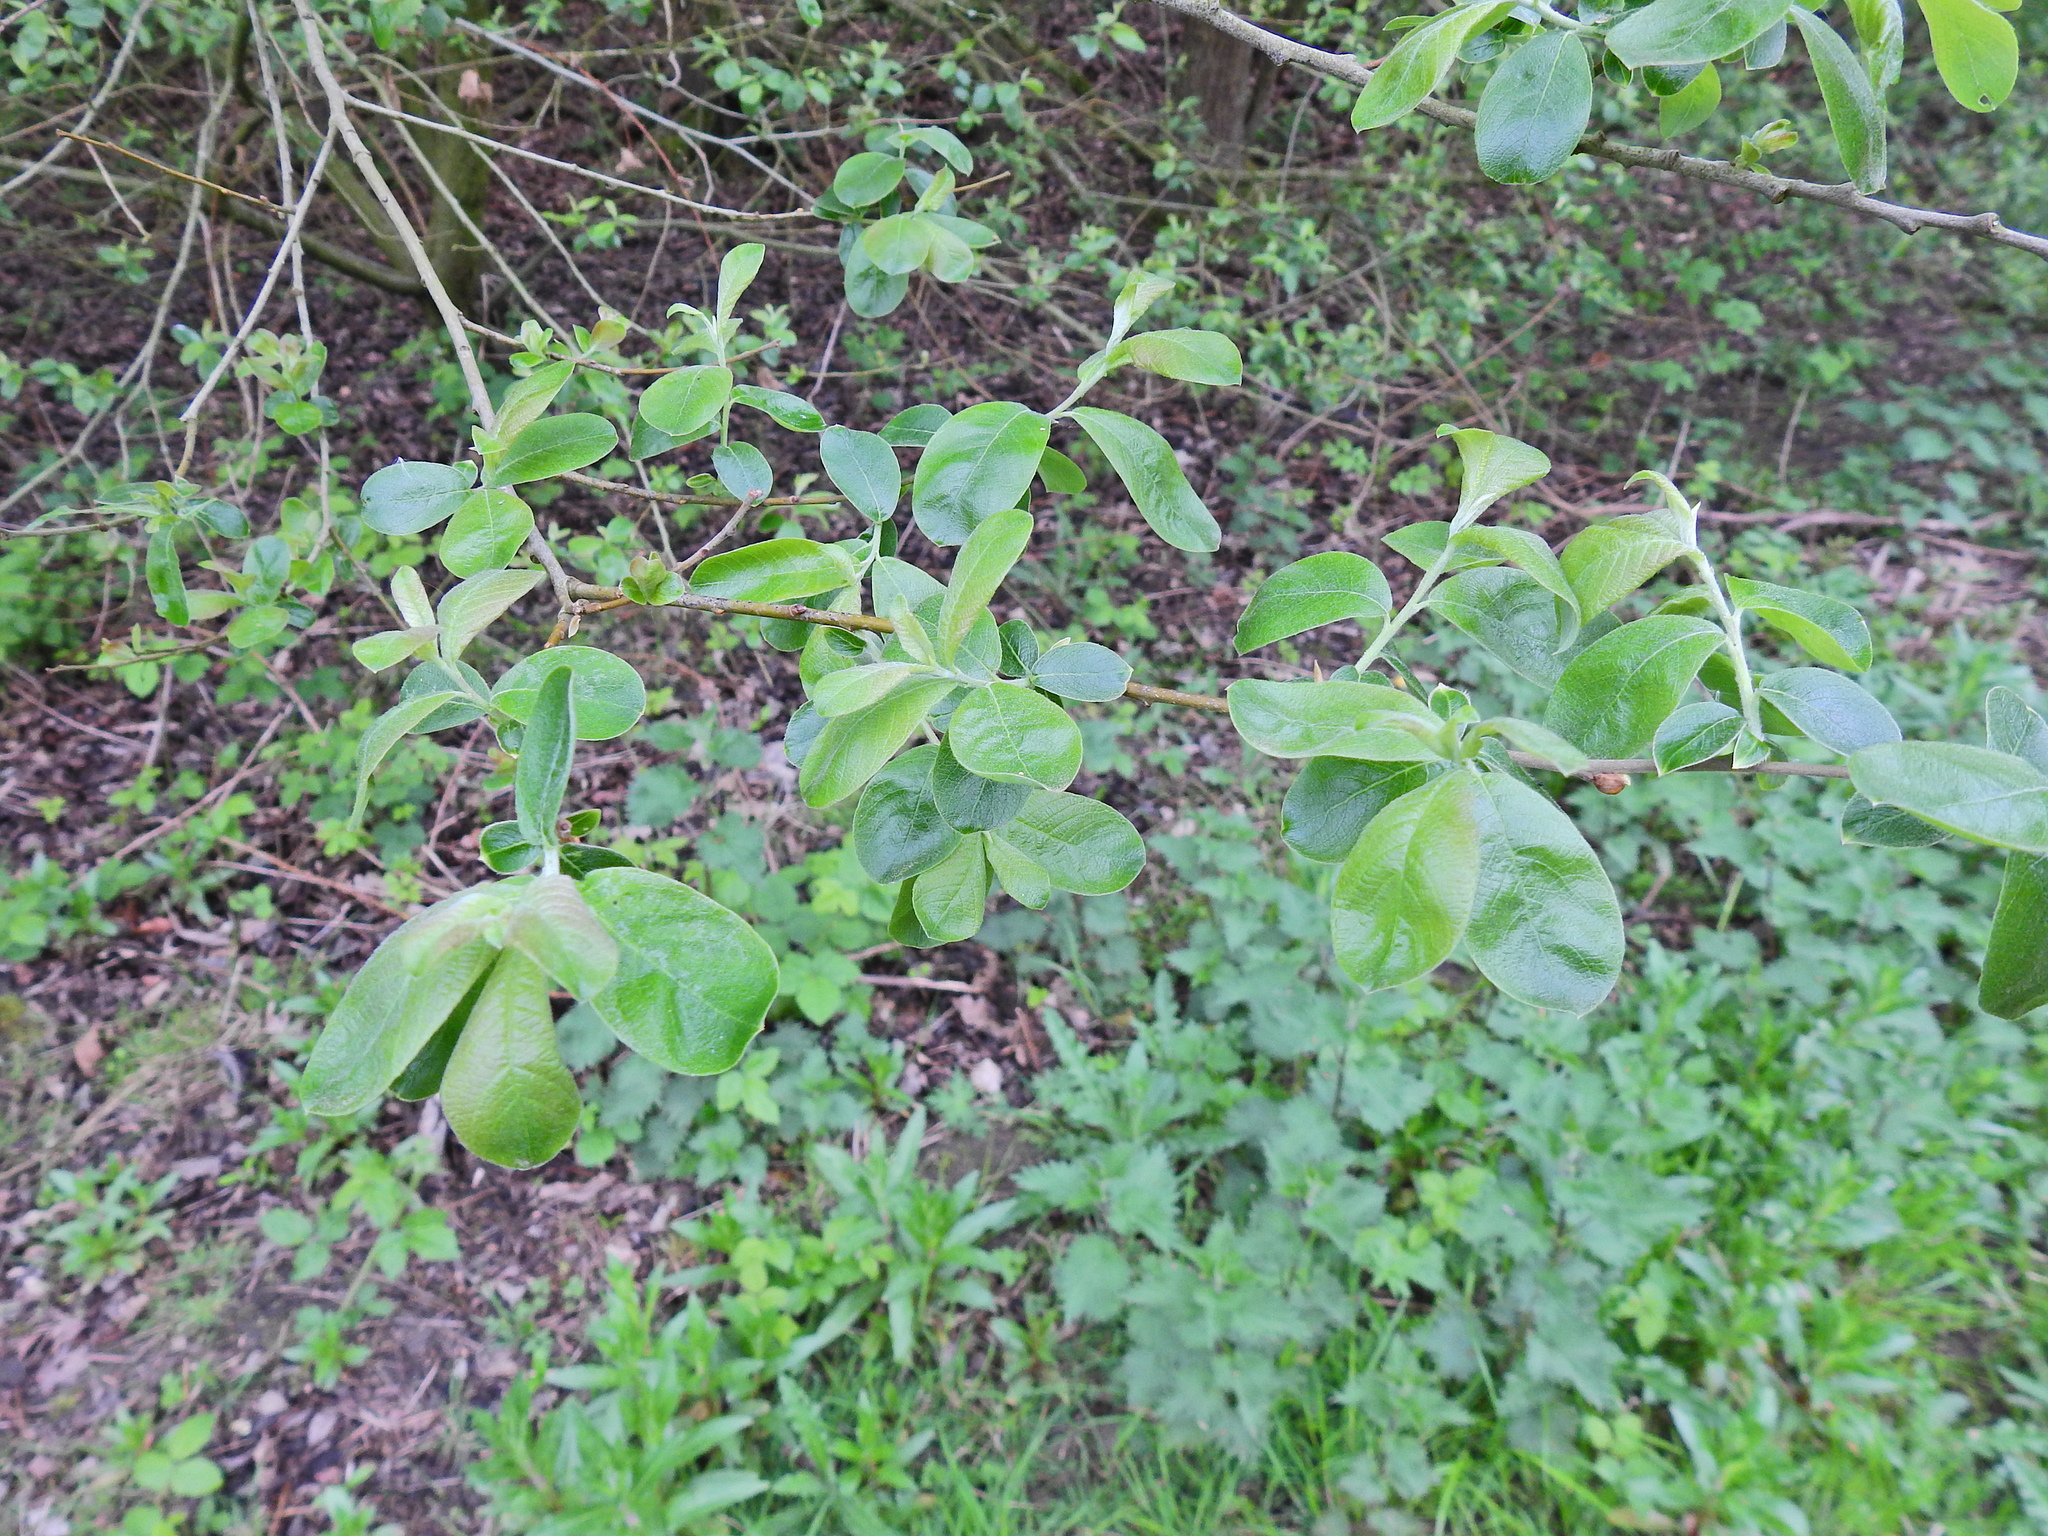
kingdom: Plantae
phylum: Tracheophyta
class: Magnoliopsida
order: Malpighiales
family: Salicaceae
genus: Salix
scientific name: Salix caprea
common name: Goat willow
